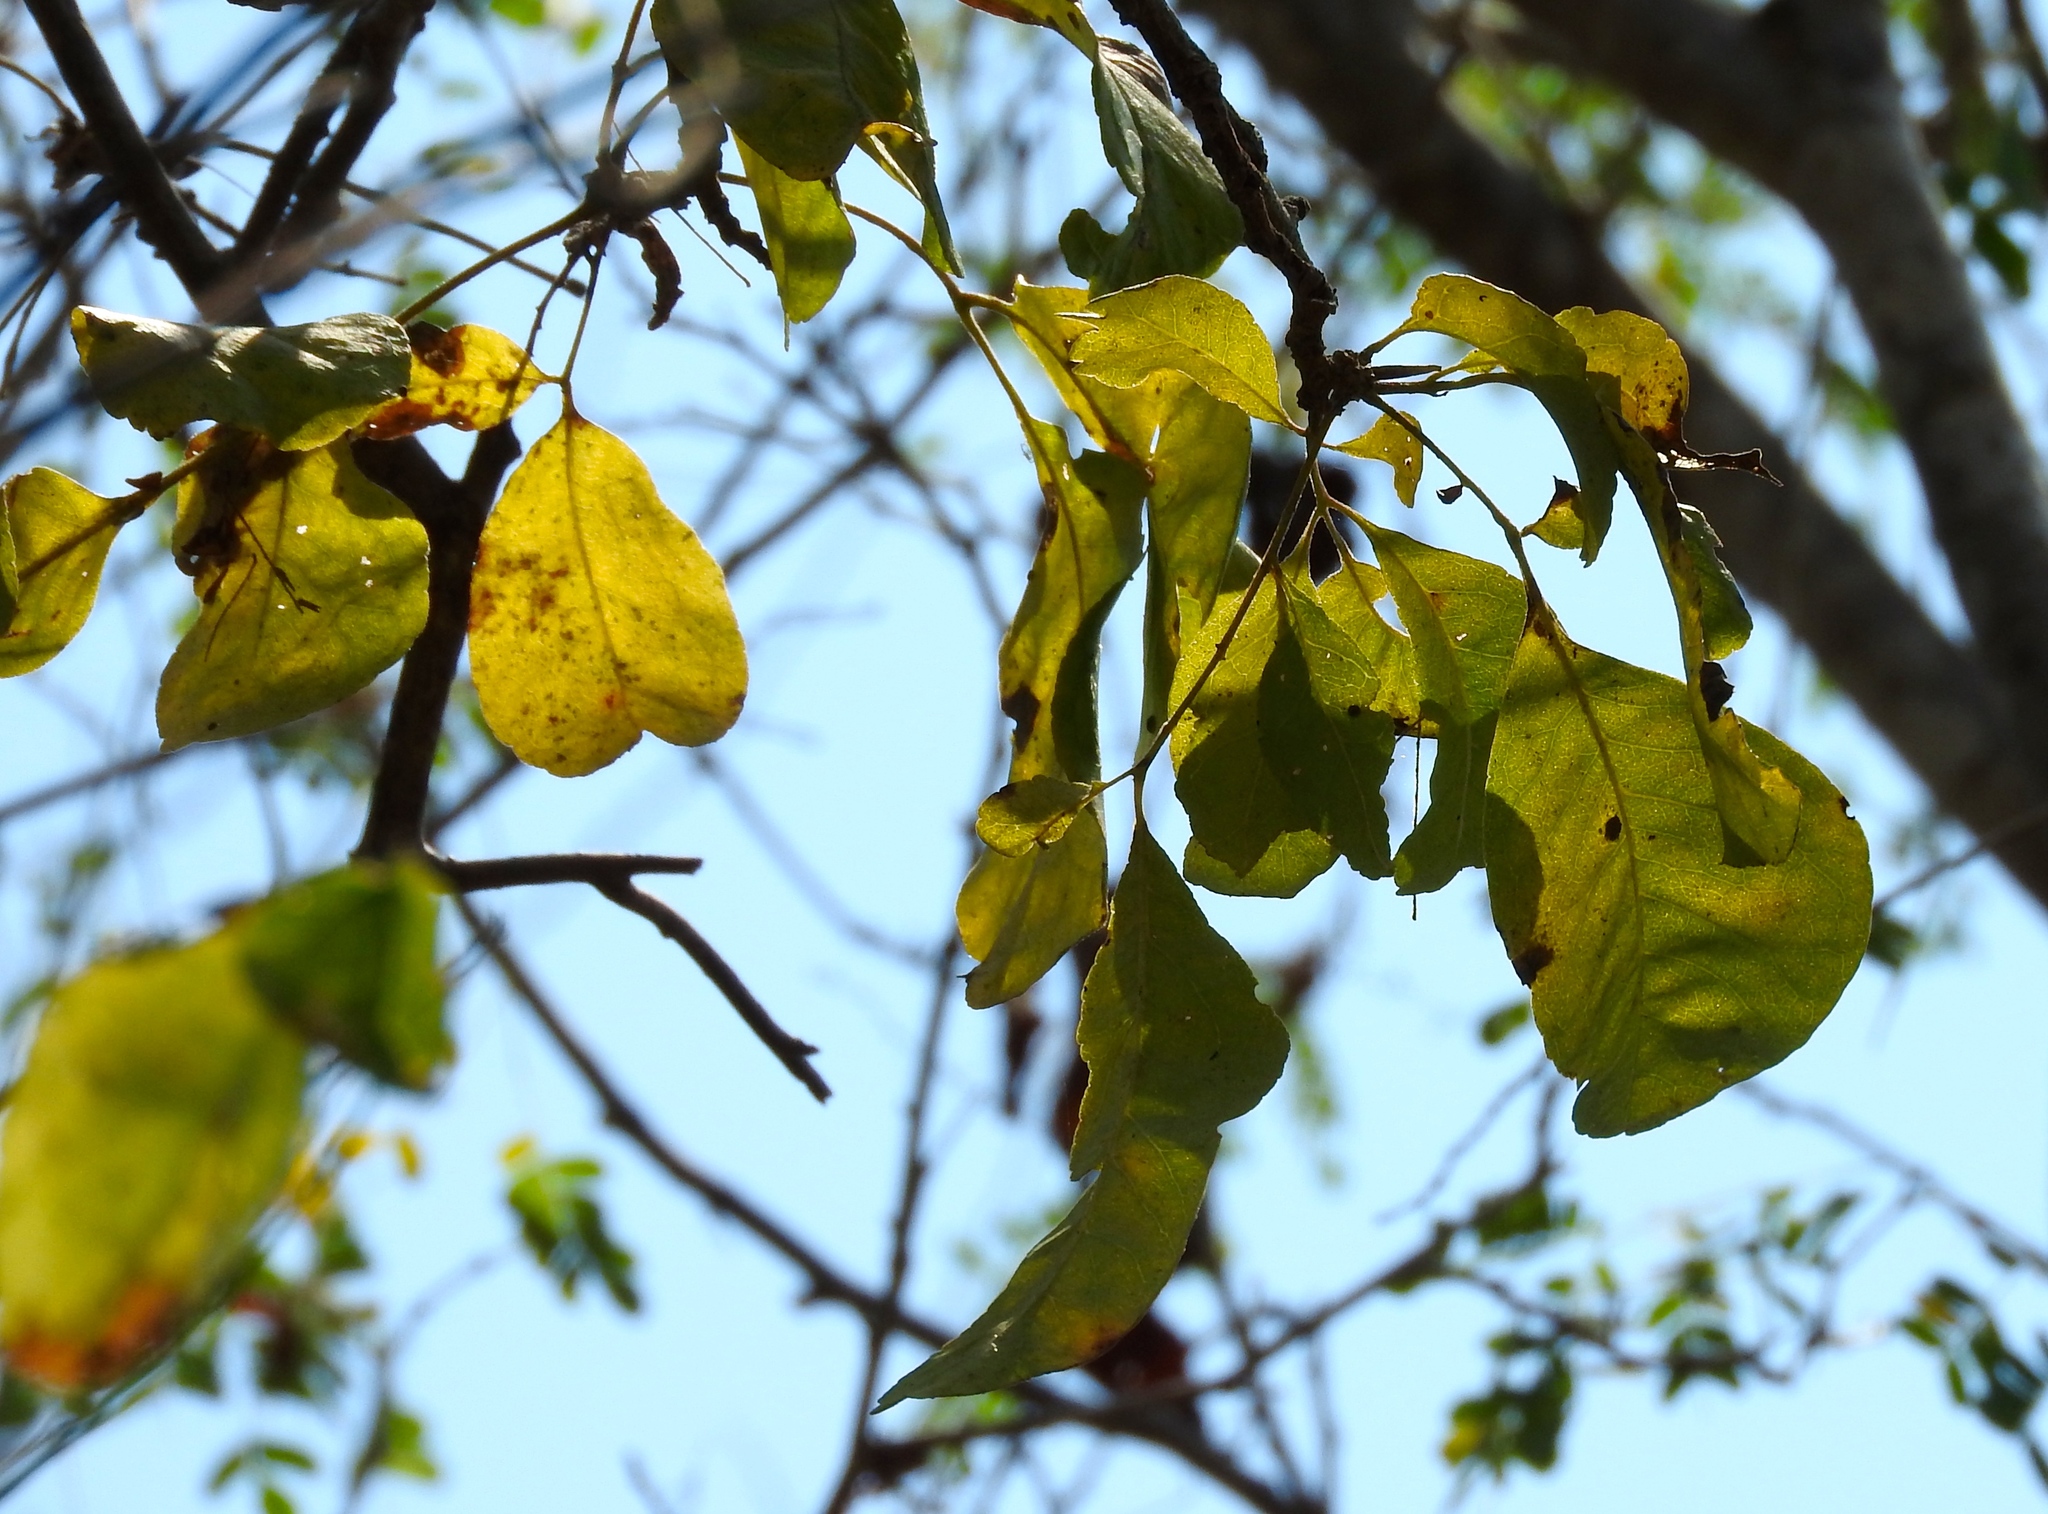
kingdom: Plantae
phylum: Tracheophyta
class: Magnoliopsida
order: Sapindales
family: Rutaceae
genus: Zanthoxylum
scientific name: Zanthoxylum arborescens
